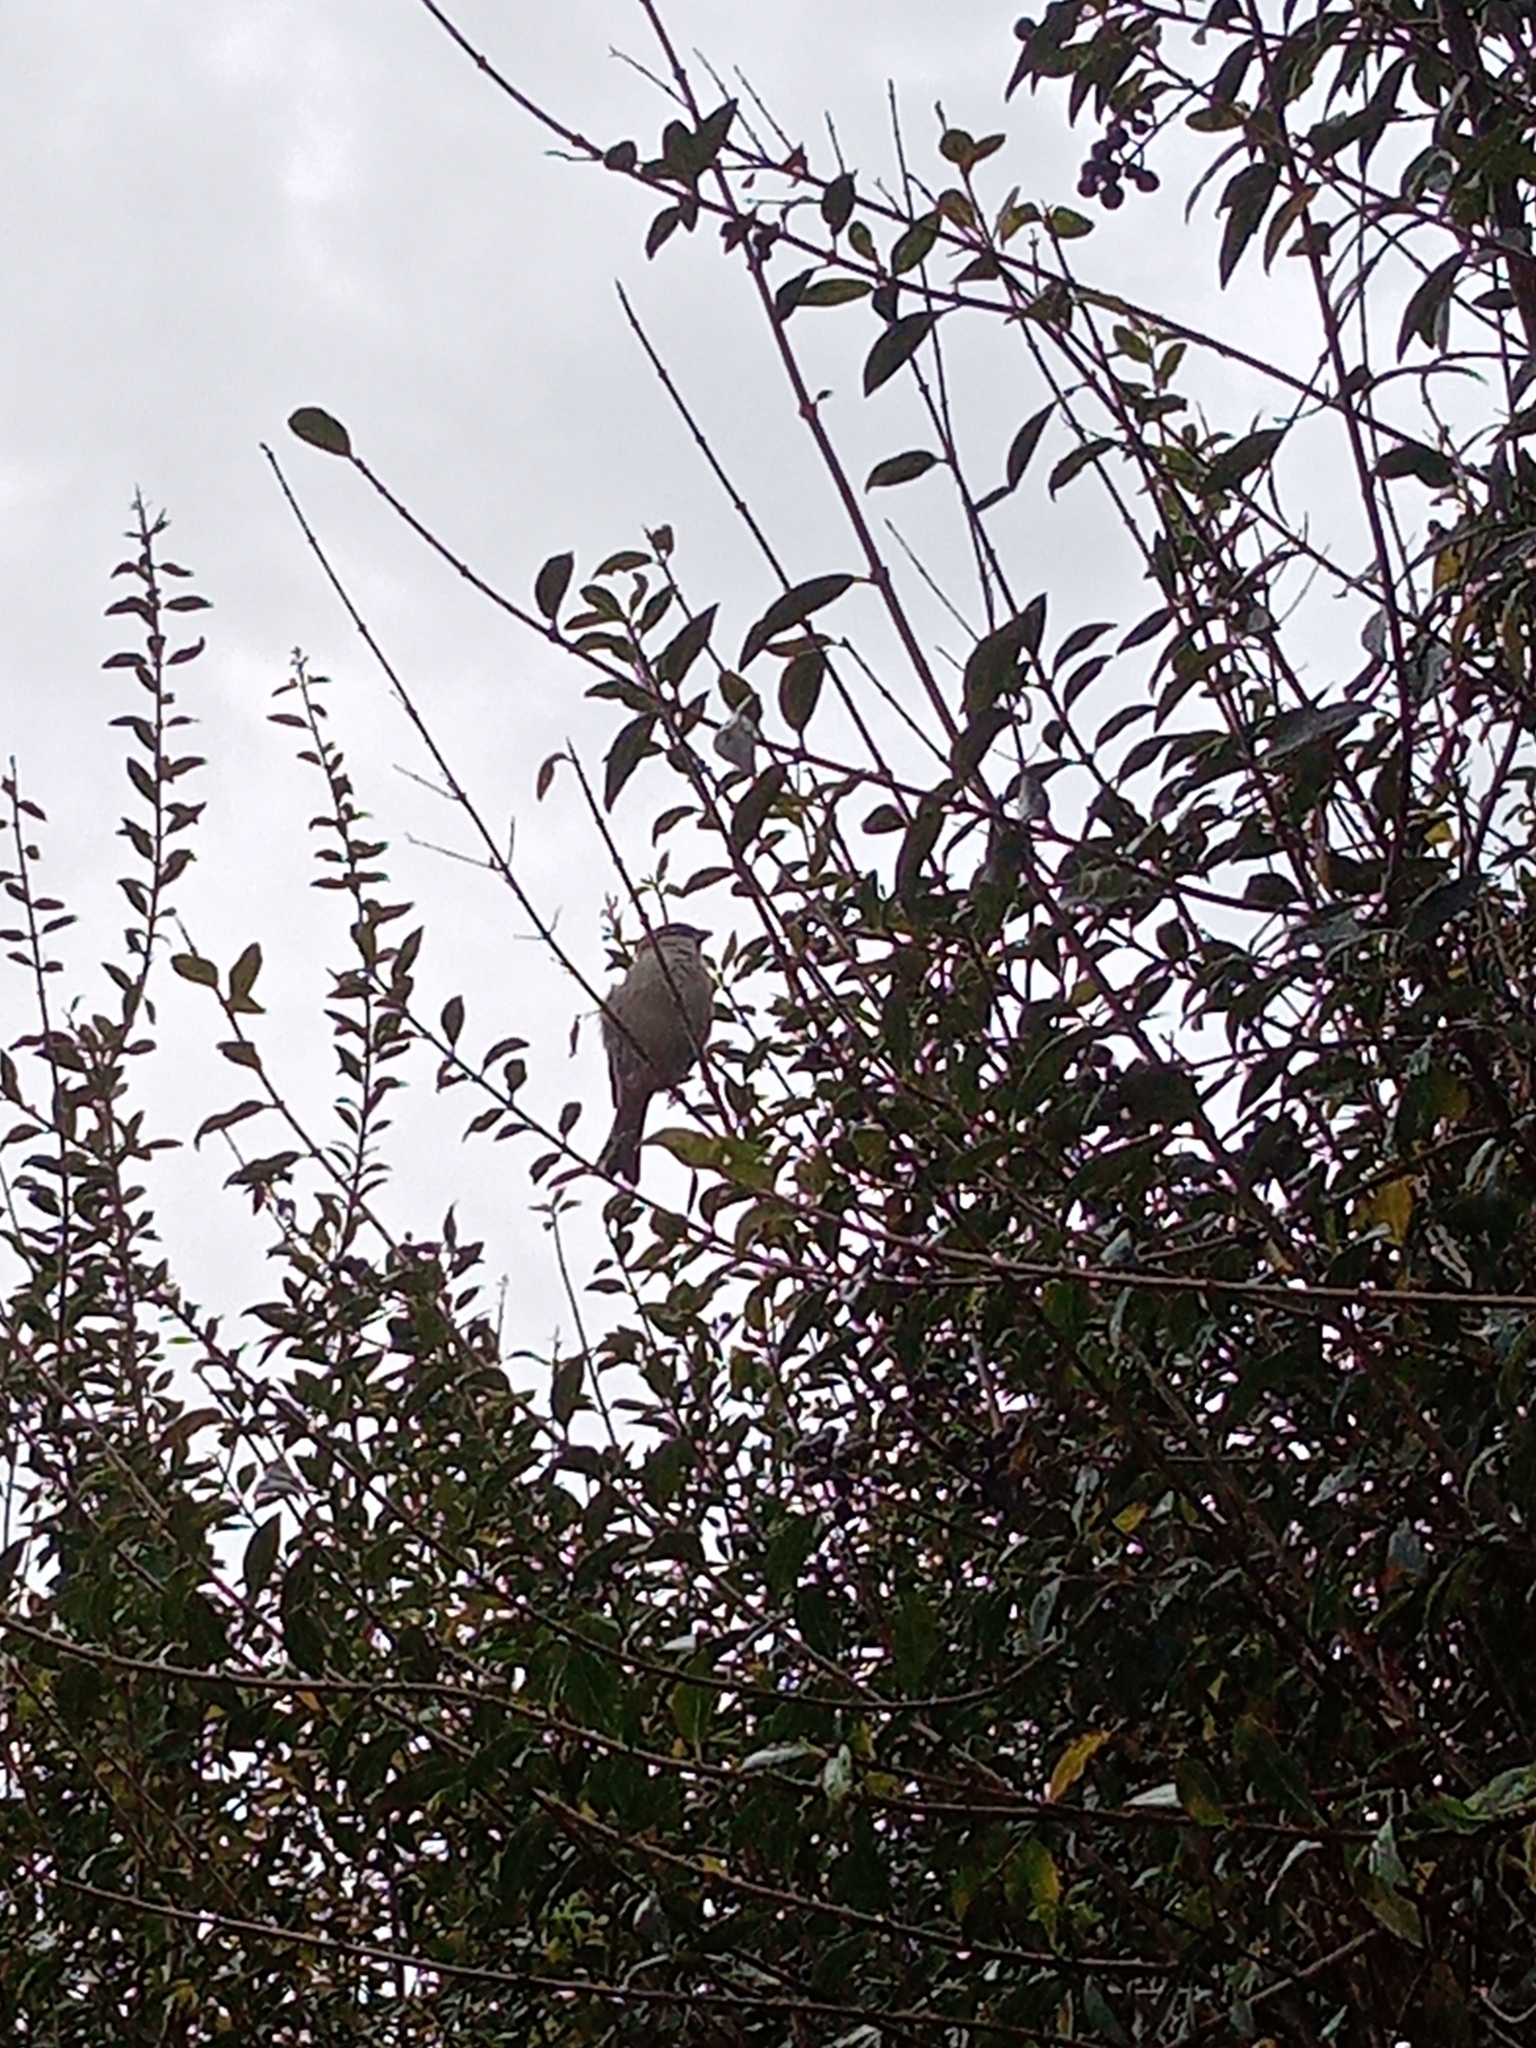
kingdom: Animalia
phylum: Chordata
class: Aves
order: Passeriformes
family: Passeridae
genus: Passer
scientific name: Passer domesticus
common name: House sparrow
